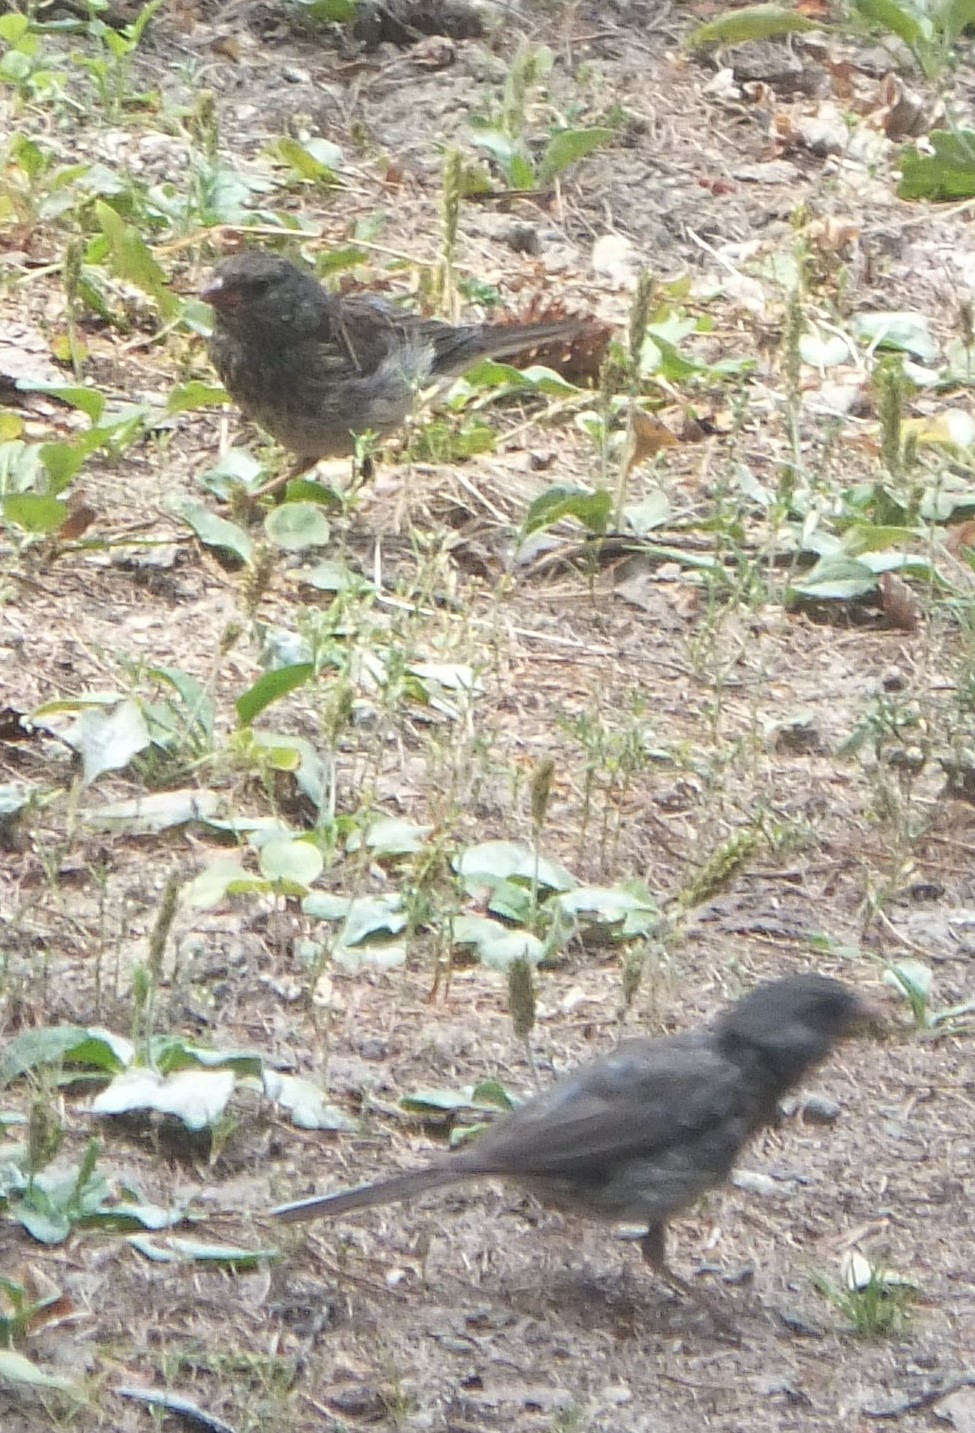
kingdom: Animalia
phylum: Chordata
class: Aves
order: Passeriformes
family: Passerellidae
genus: Junco
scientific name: Junco hyemalis
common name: Dark-eyed junco
